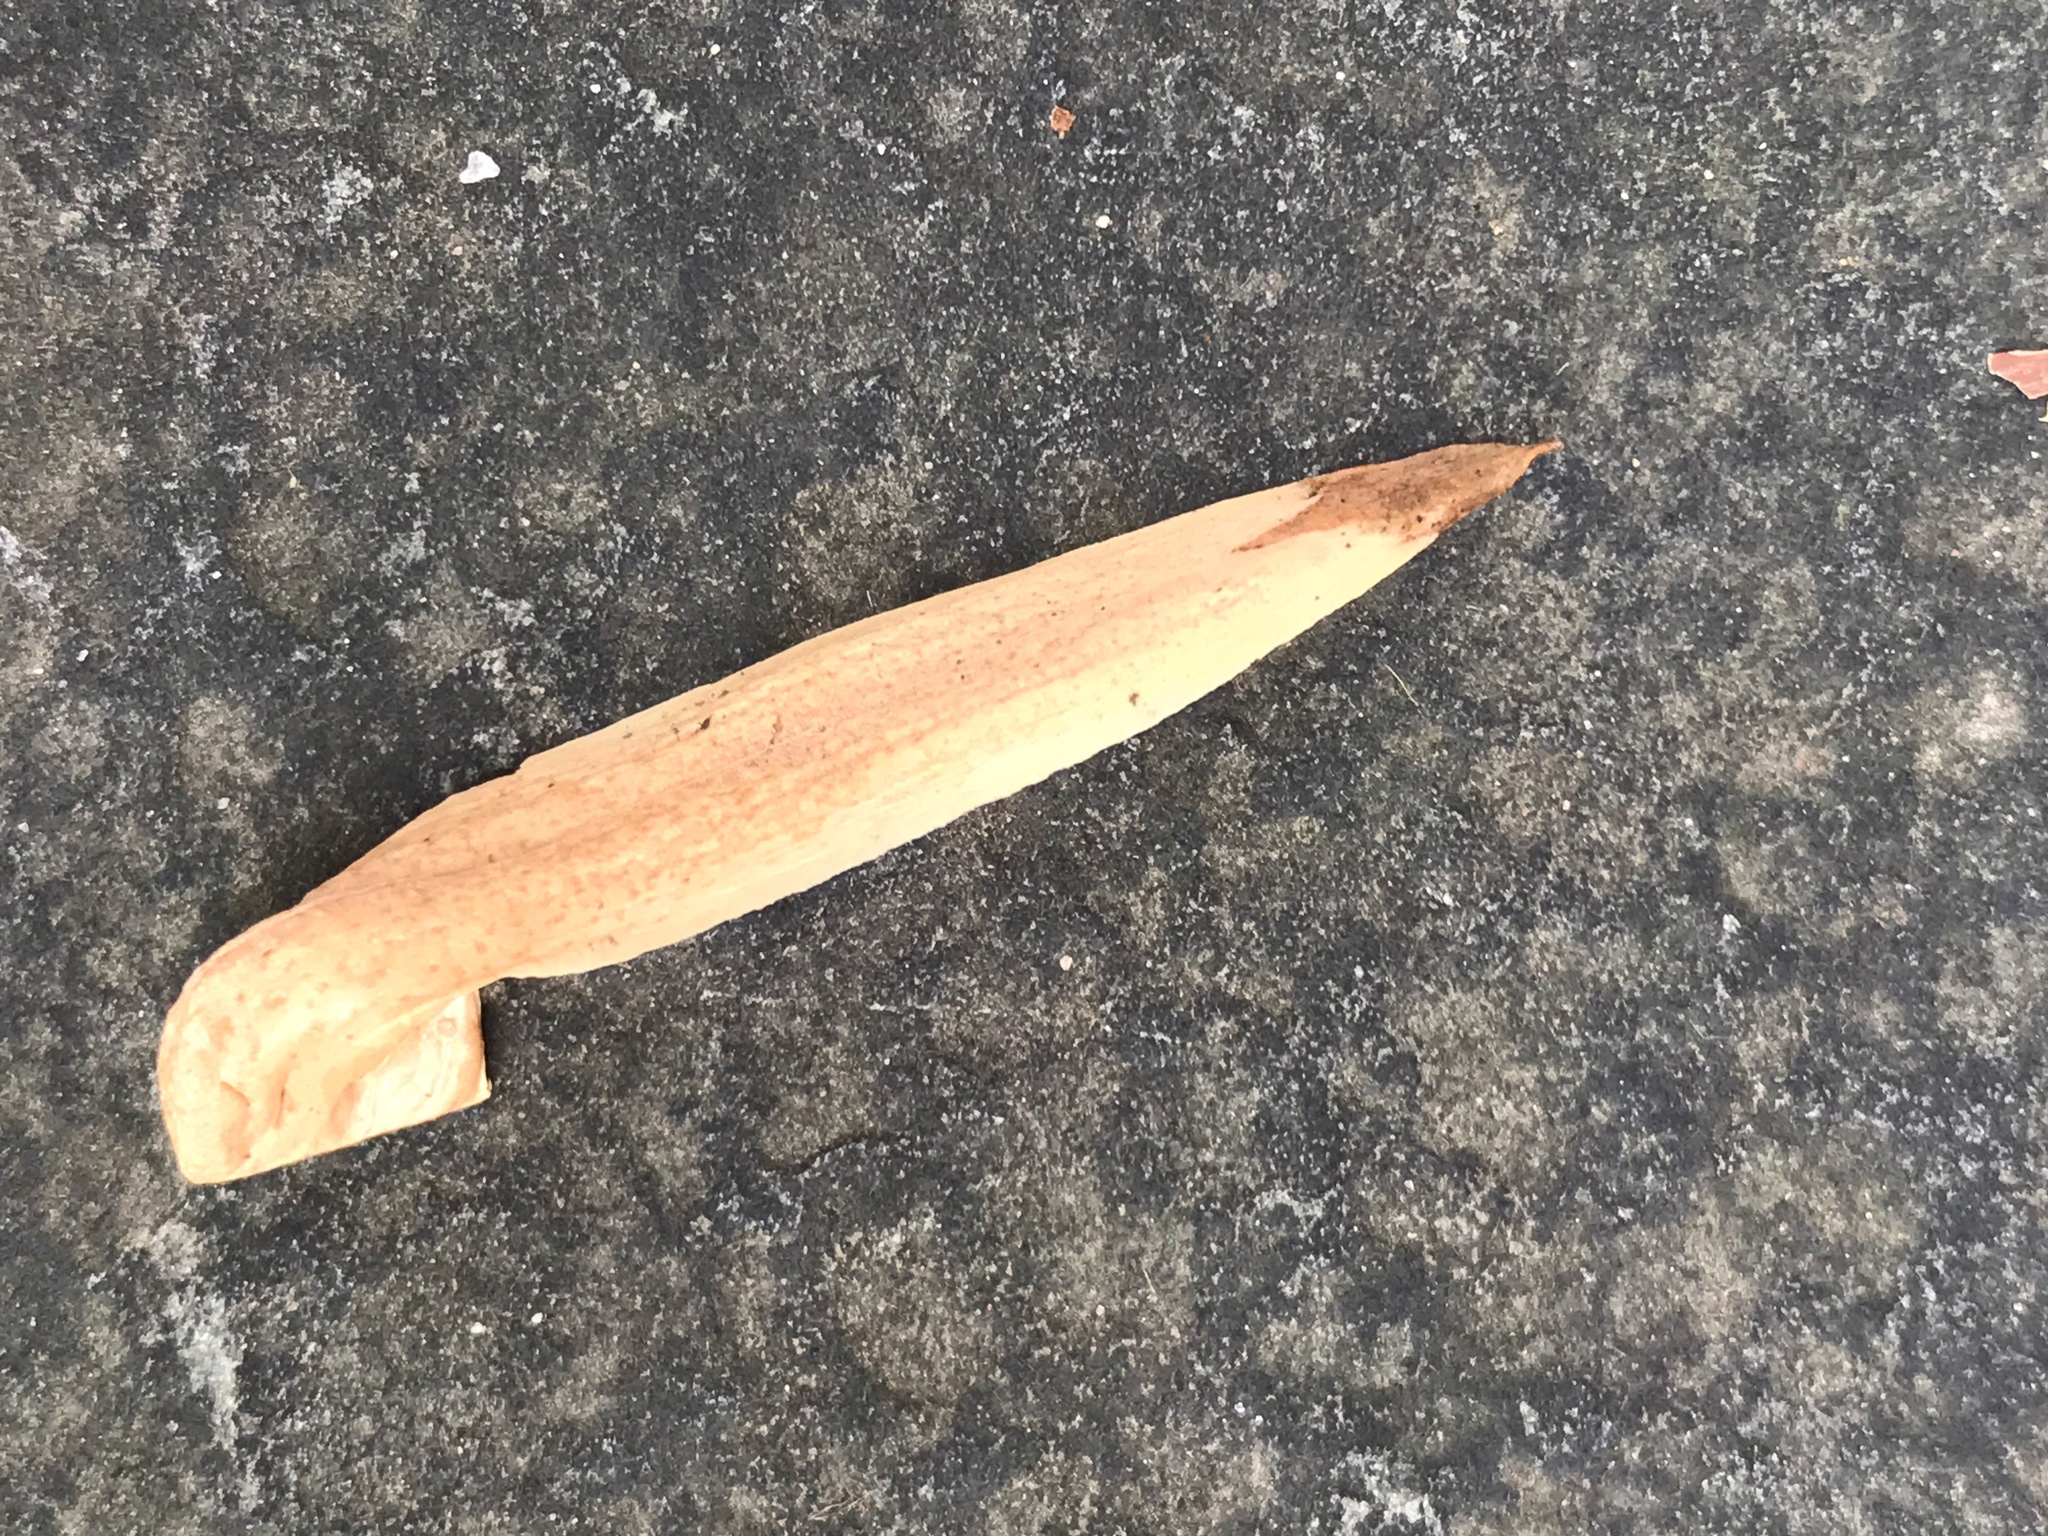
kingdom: Plantae
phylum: Tracheophyta
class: Magnoliopsida
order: Magnoliales
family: Magnoliaceae
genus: Liriodendron
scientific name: Liriodendron tulipifera
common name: Tulip tree
